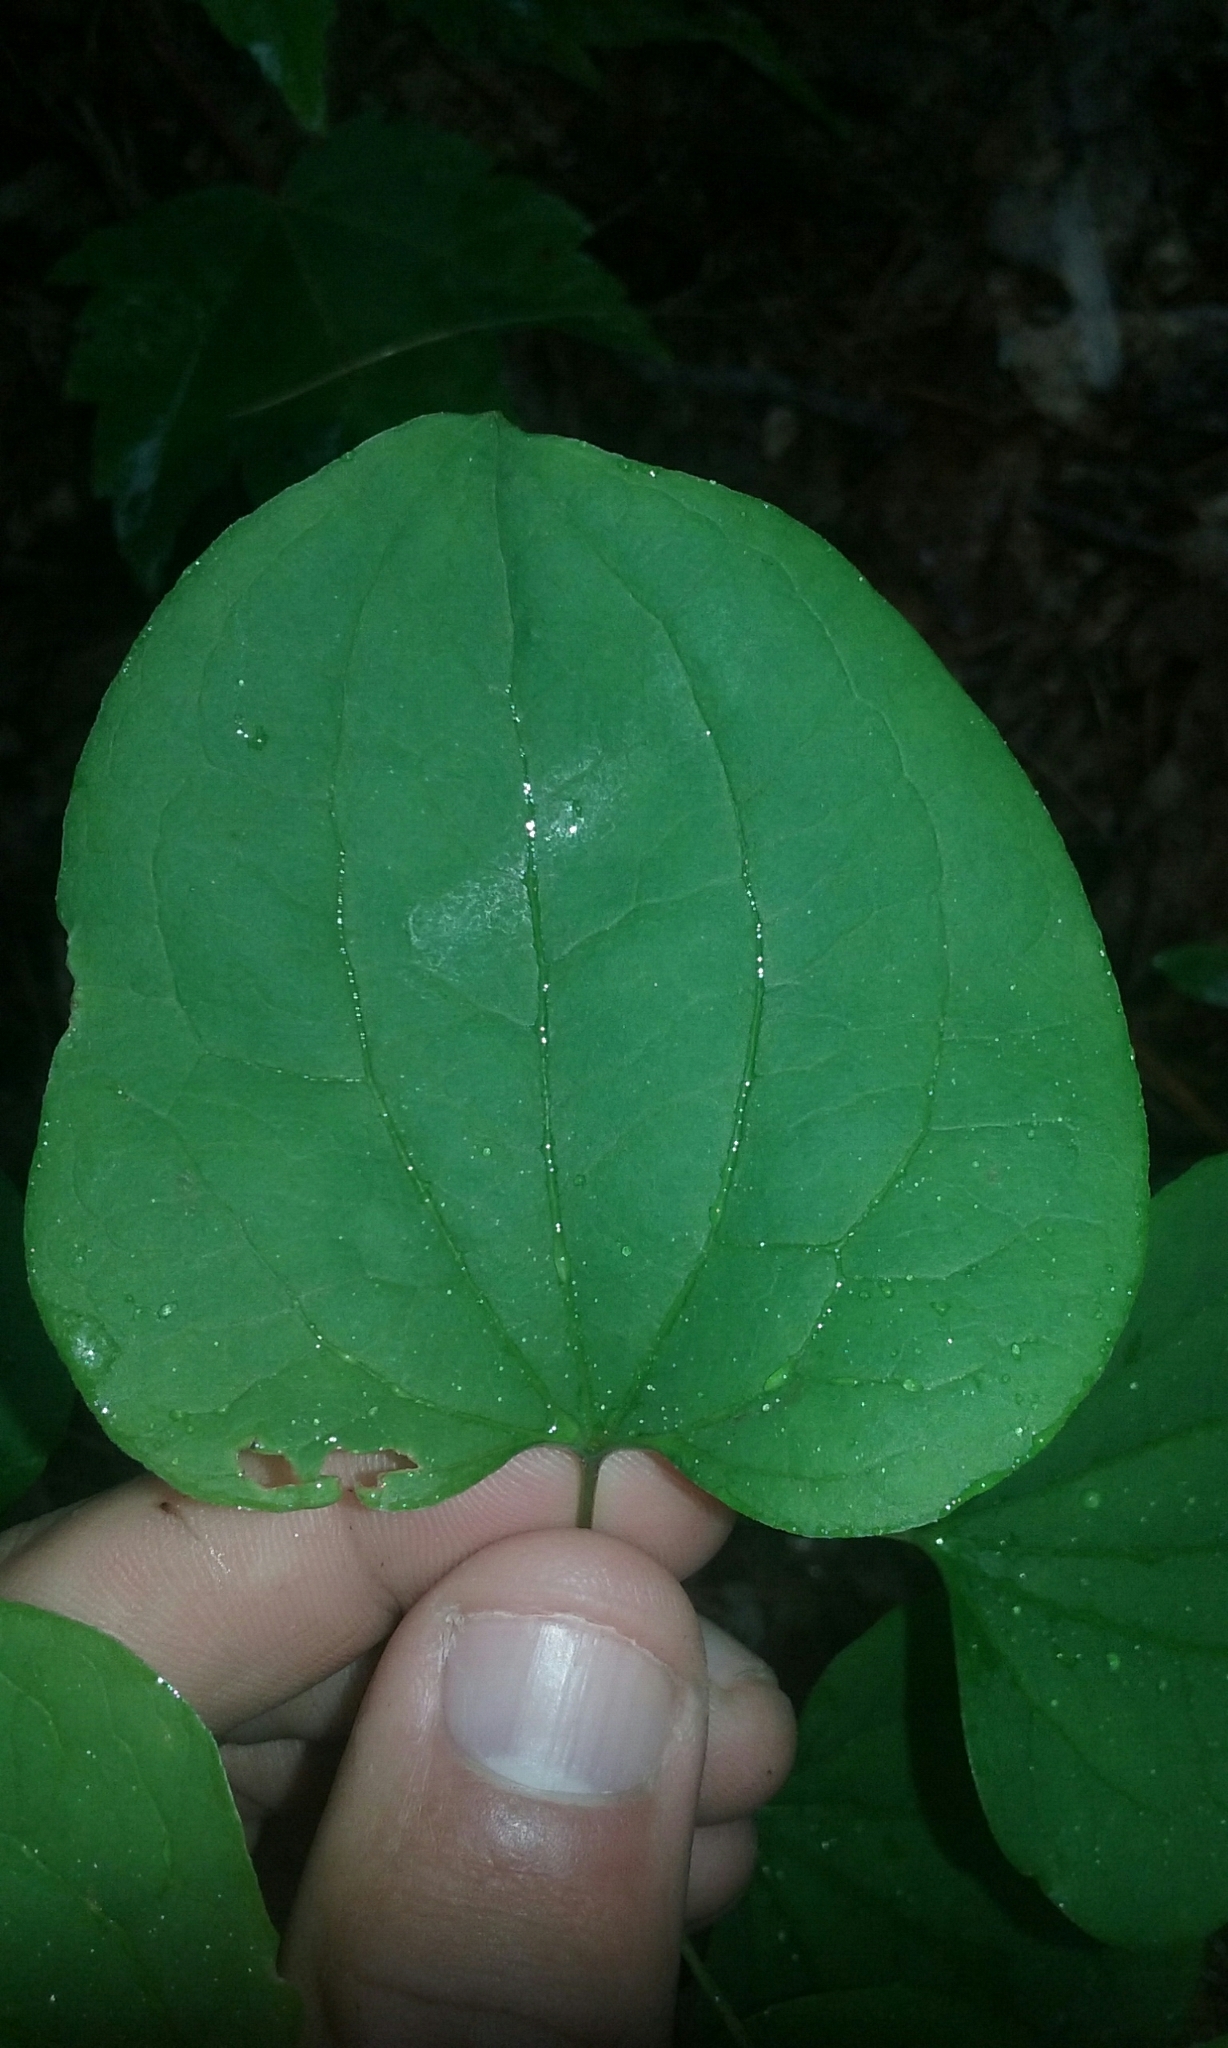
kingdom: Plantae
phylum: Tracheophyta
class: Liliopsida
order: Liliales
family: Smilacaceae
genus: Smilax
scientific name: Smilax herbacea
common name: Jacob's-ladder
